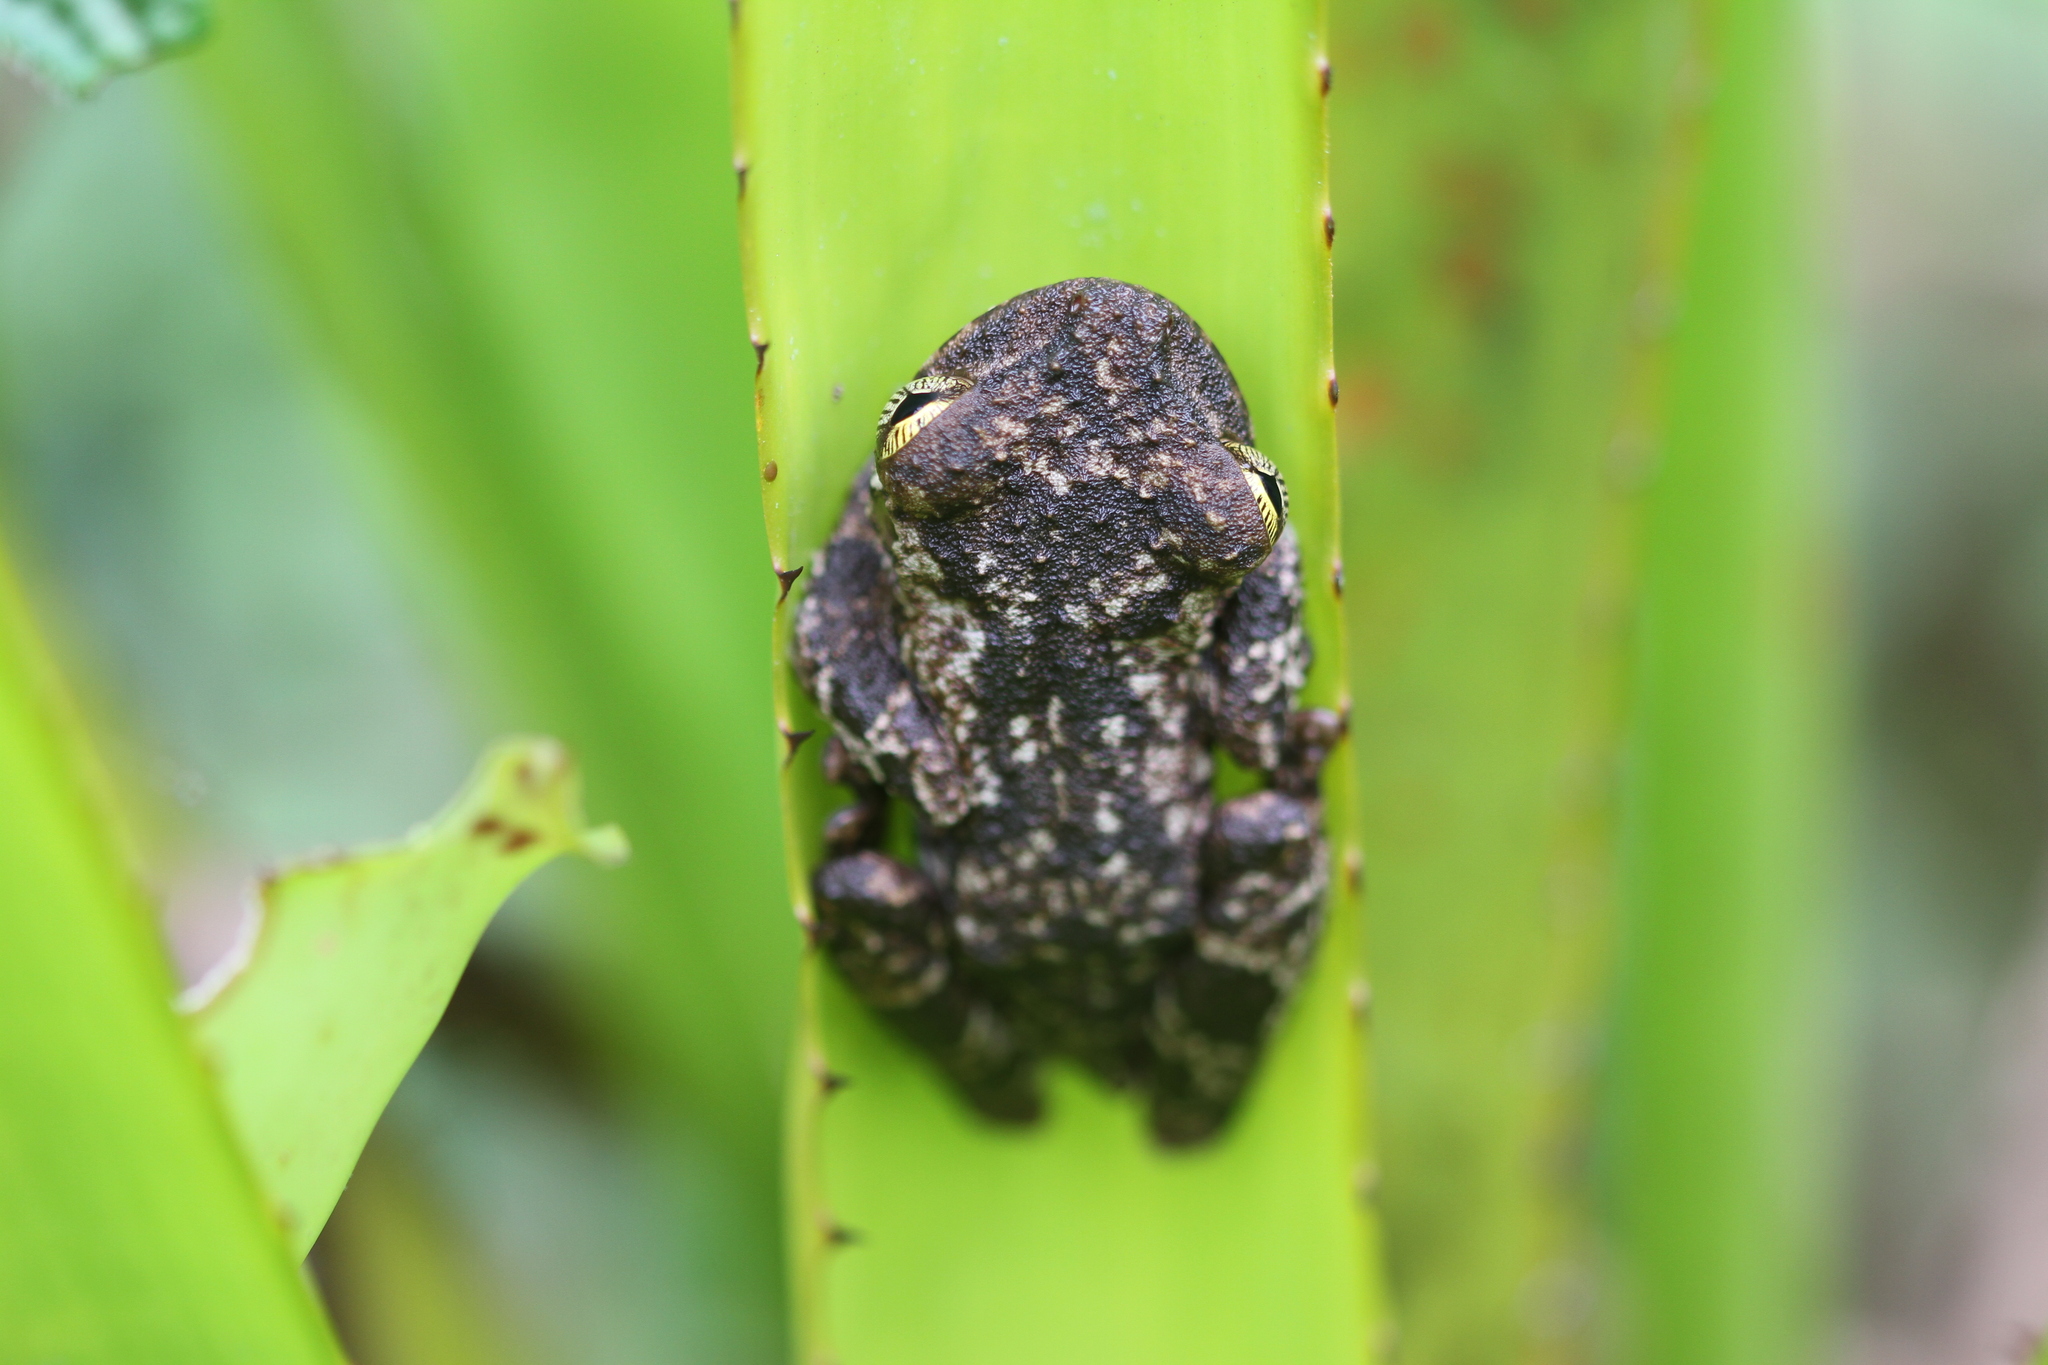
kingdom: Animalia
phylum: Chordata
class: Amphibia
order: Anura
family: Hylidae
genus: Osteocephalus
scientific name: Osteocephalus oophagus
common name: Oophagous slender-legged treefrog
